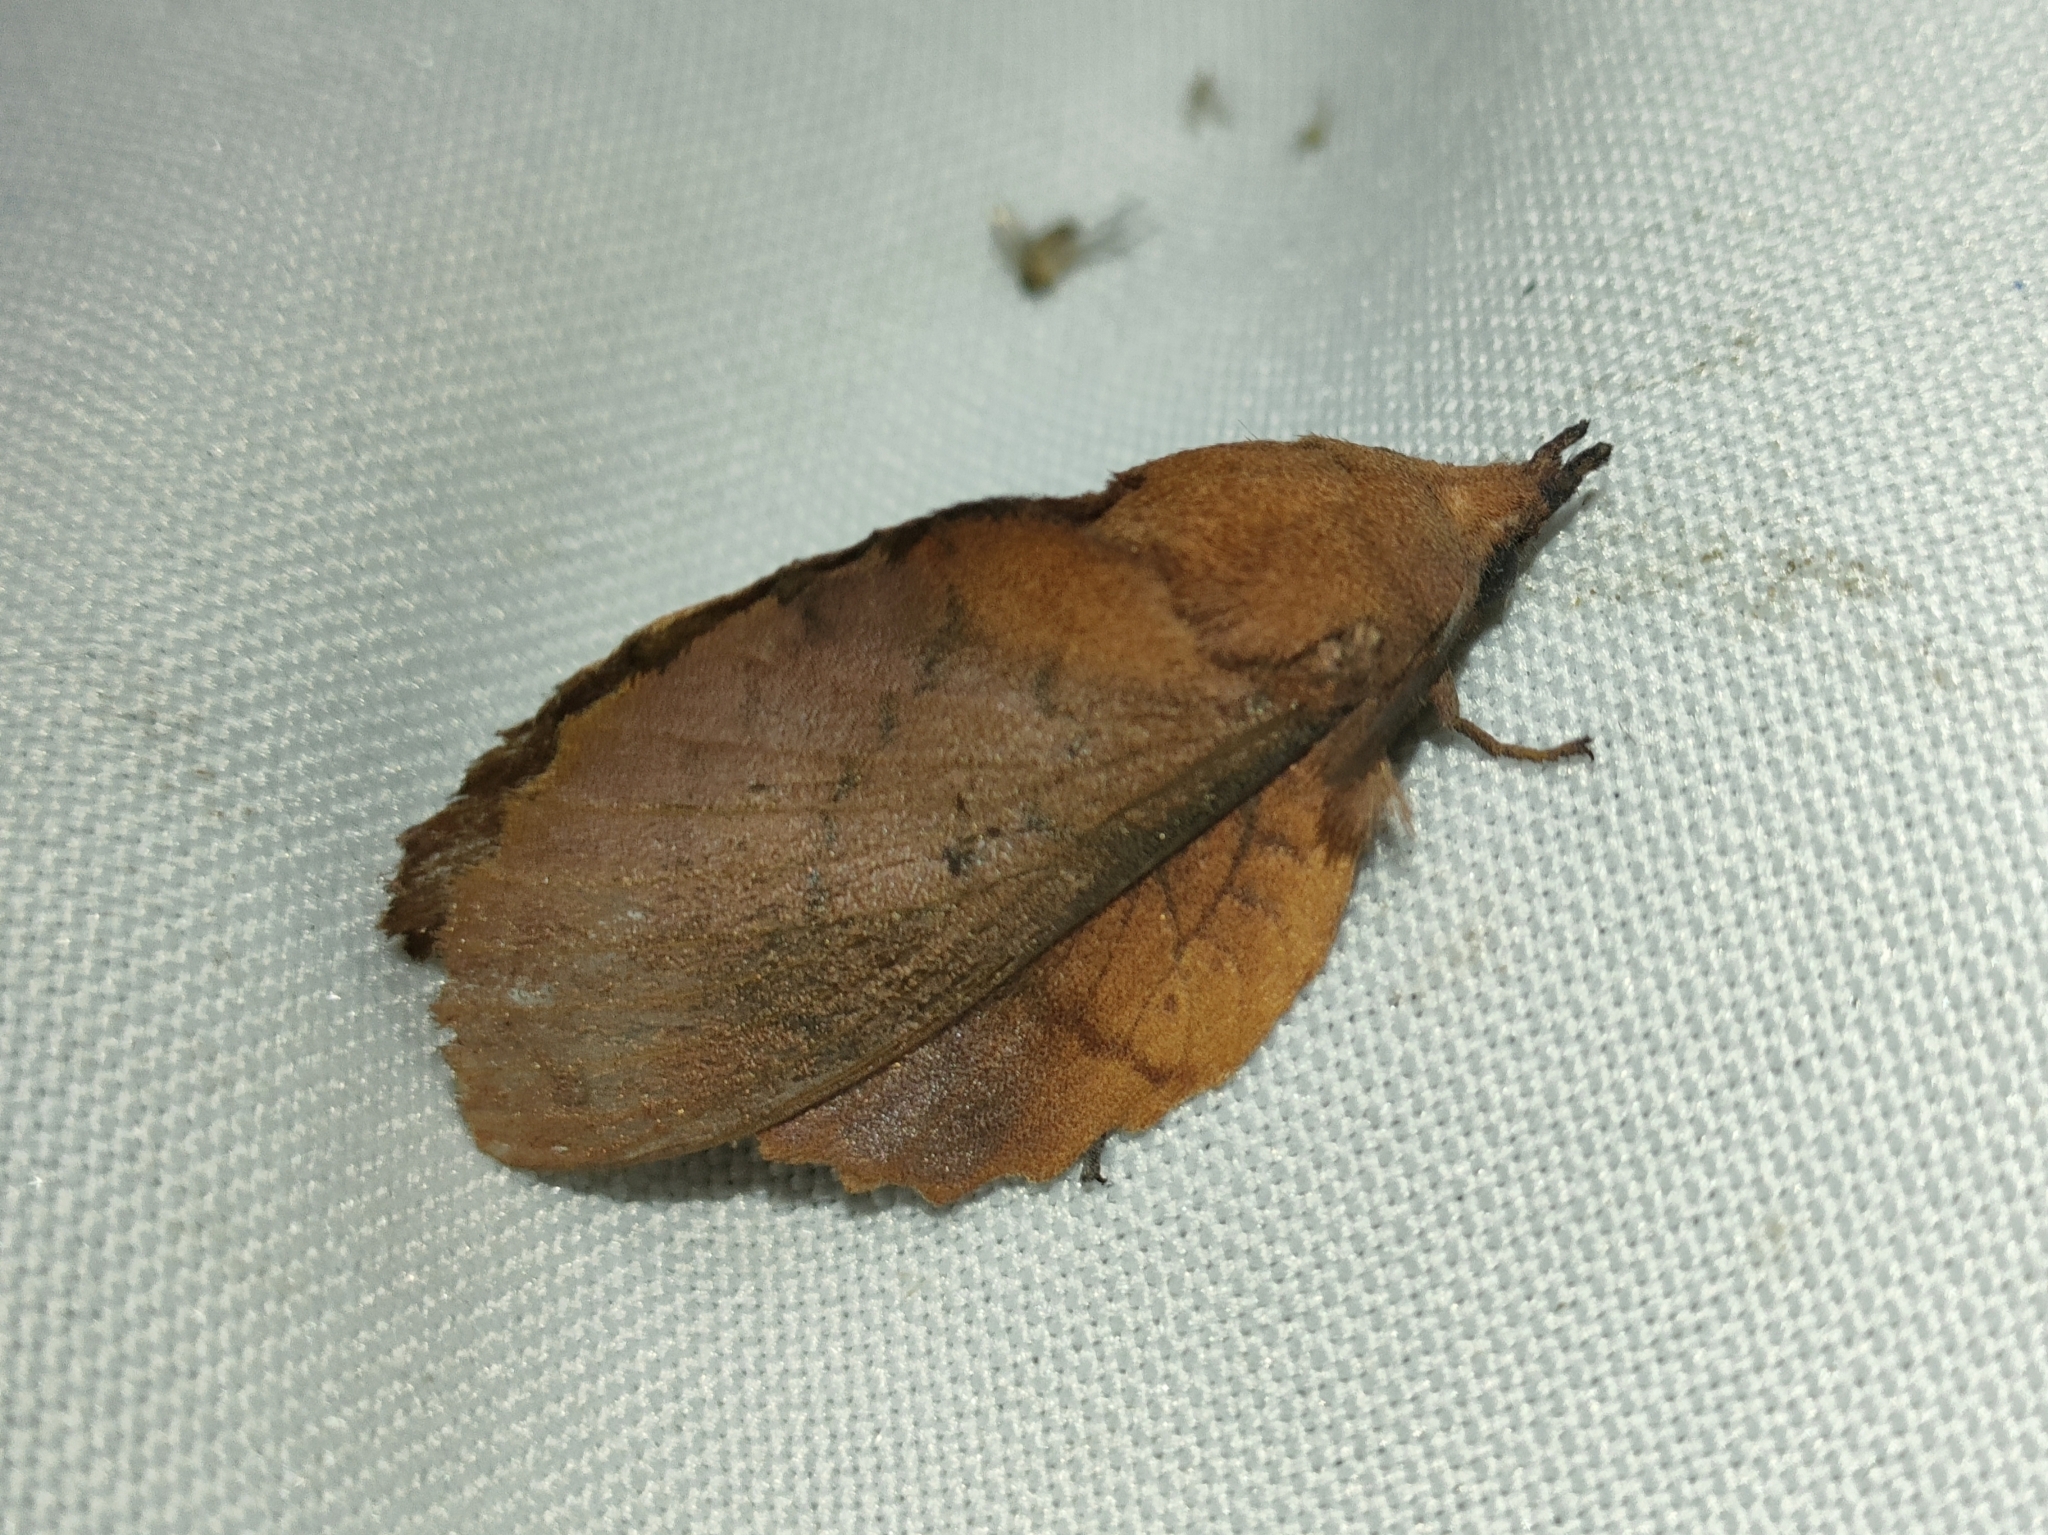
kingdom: Animalia
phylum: Arthropoda
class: Insecta
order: Lepidoptera
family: Lasiocampidae
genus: Gastropacha
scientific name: Gastropacha quercifolia
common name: Lappet
